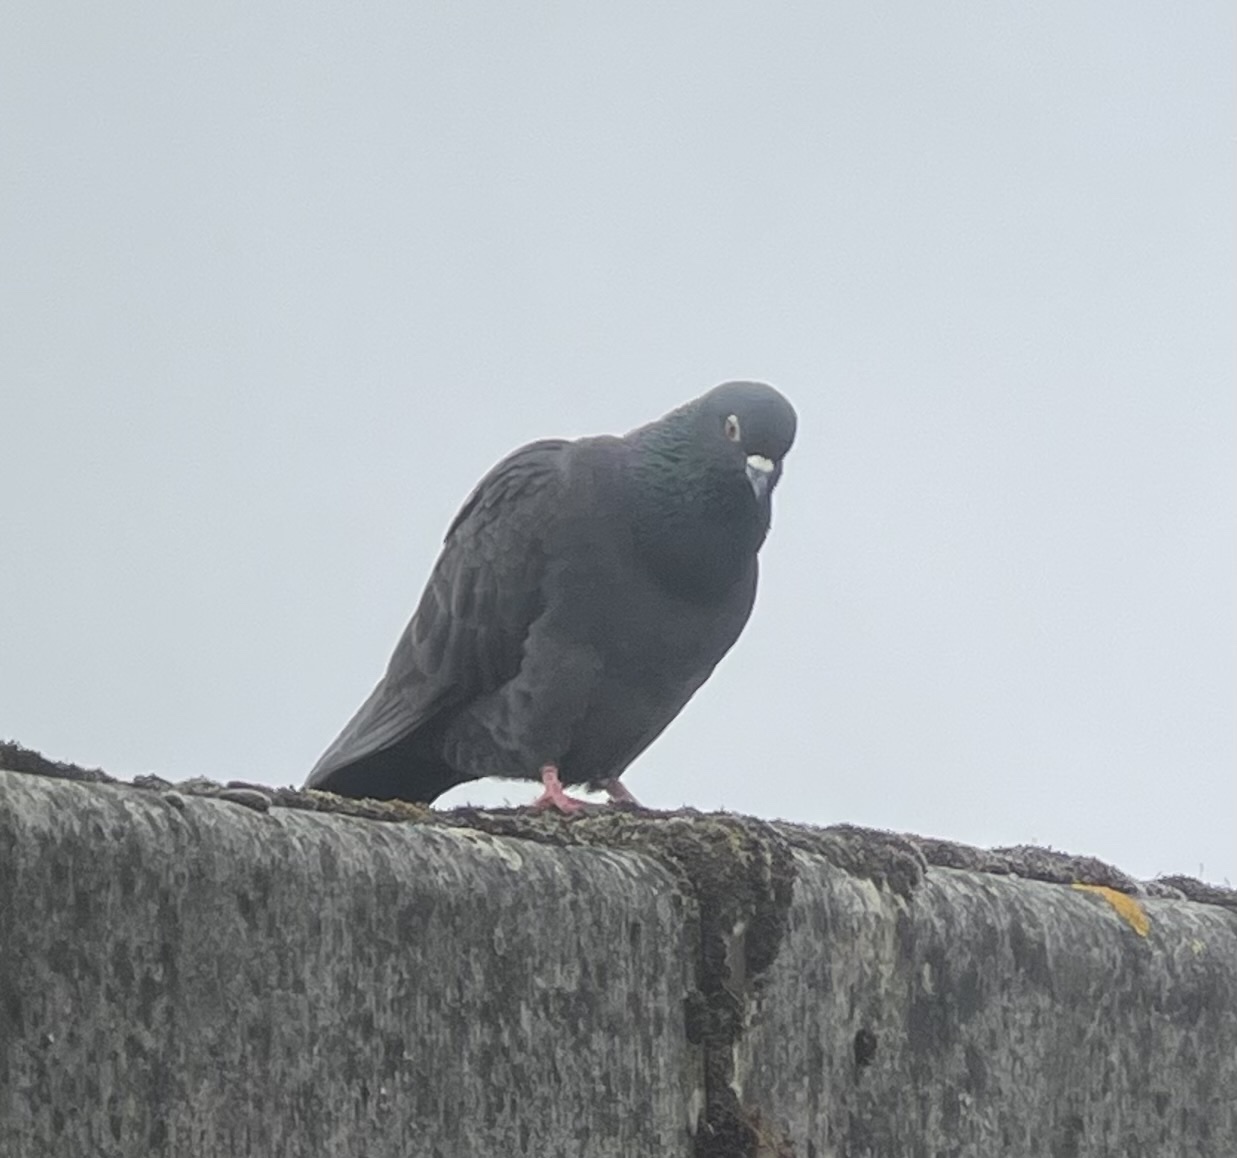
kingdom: Animalia
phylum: Chordata
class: Aves
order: Columbiformes
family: Columbidae
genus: Columba
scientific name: Columba livia
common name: Rock pigeon
